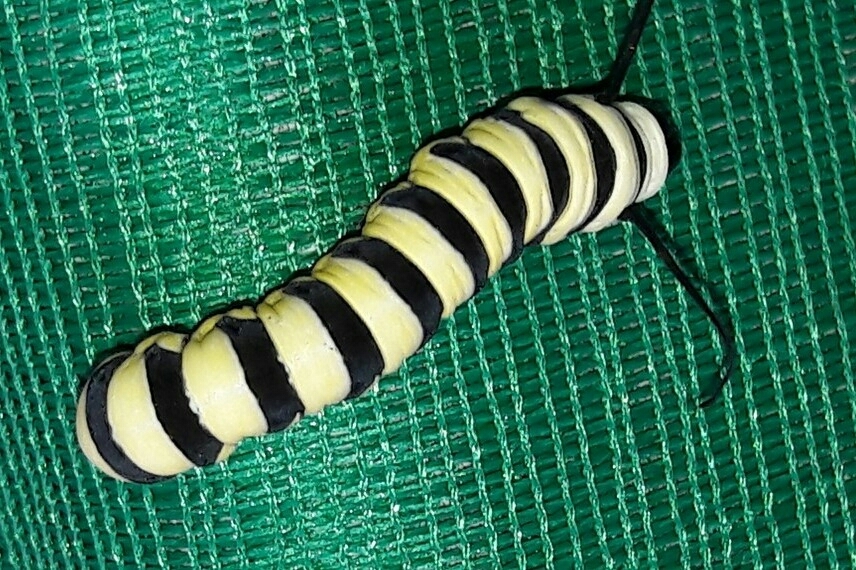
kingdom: Animalia
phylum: Arthropoda
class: Insecta
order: Lepidoptera
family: Nymphalidae
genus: Lycorea
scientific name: Lycorea cleobaea
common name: Tiger mimic-queen
